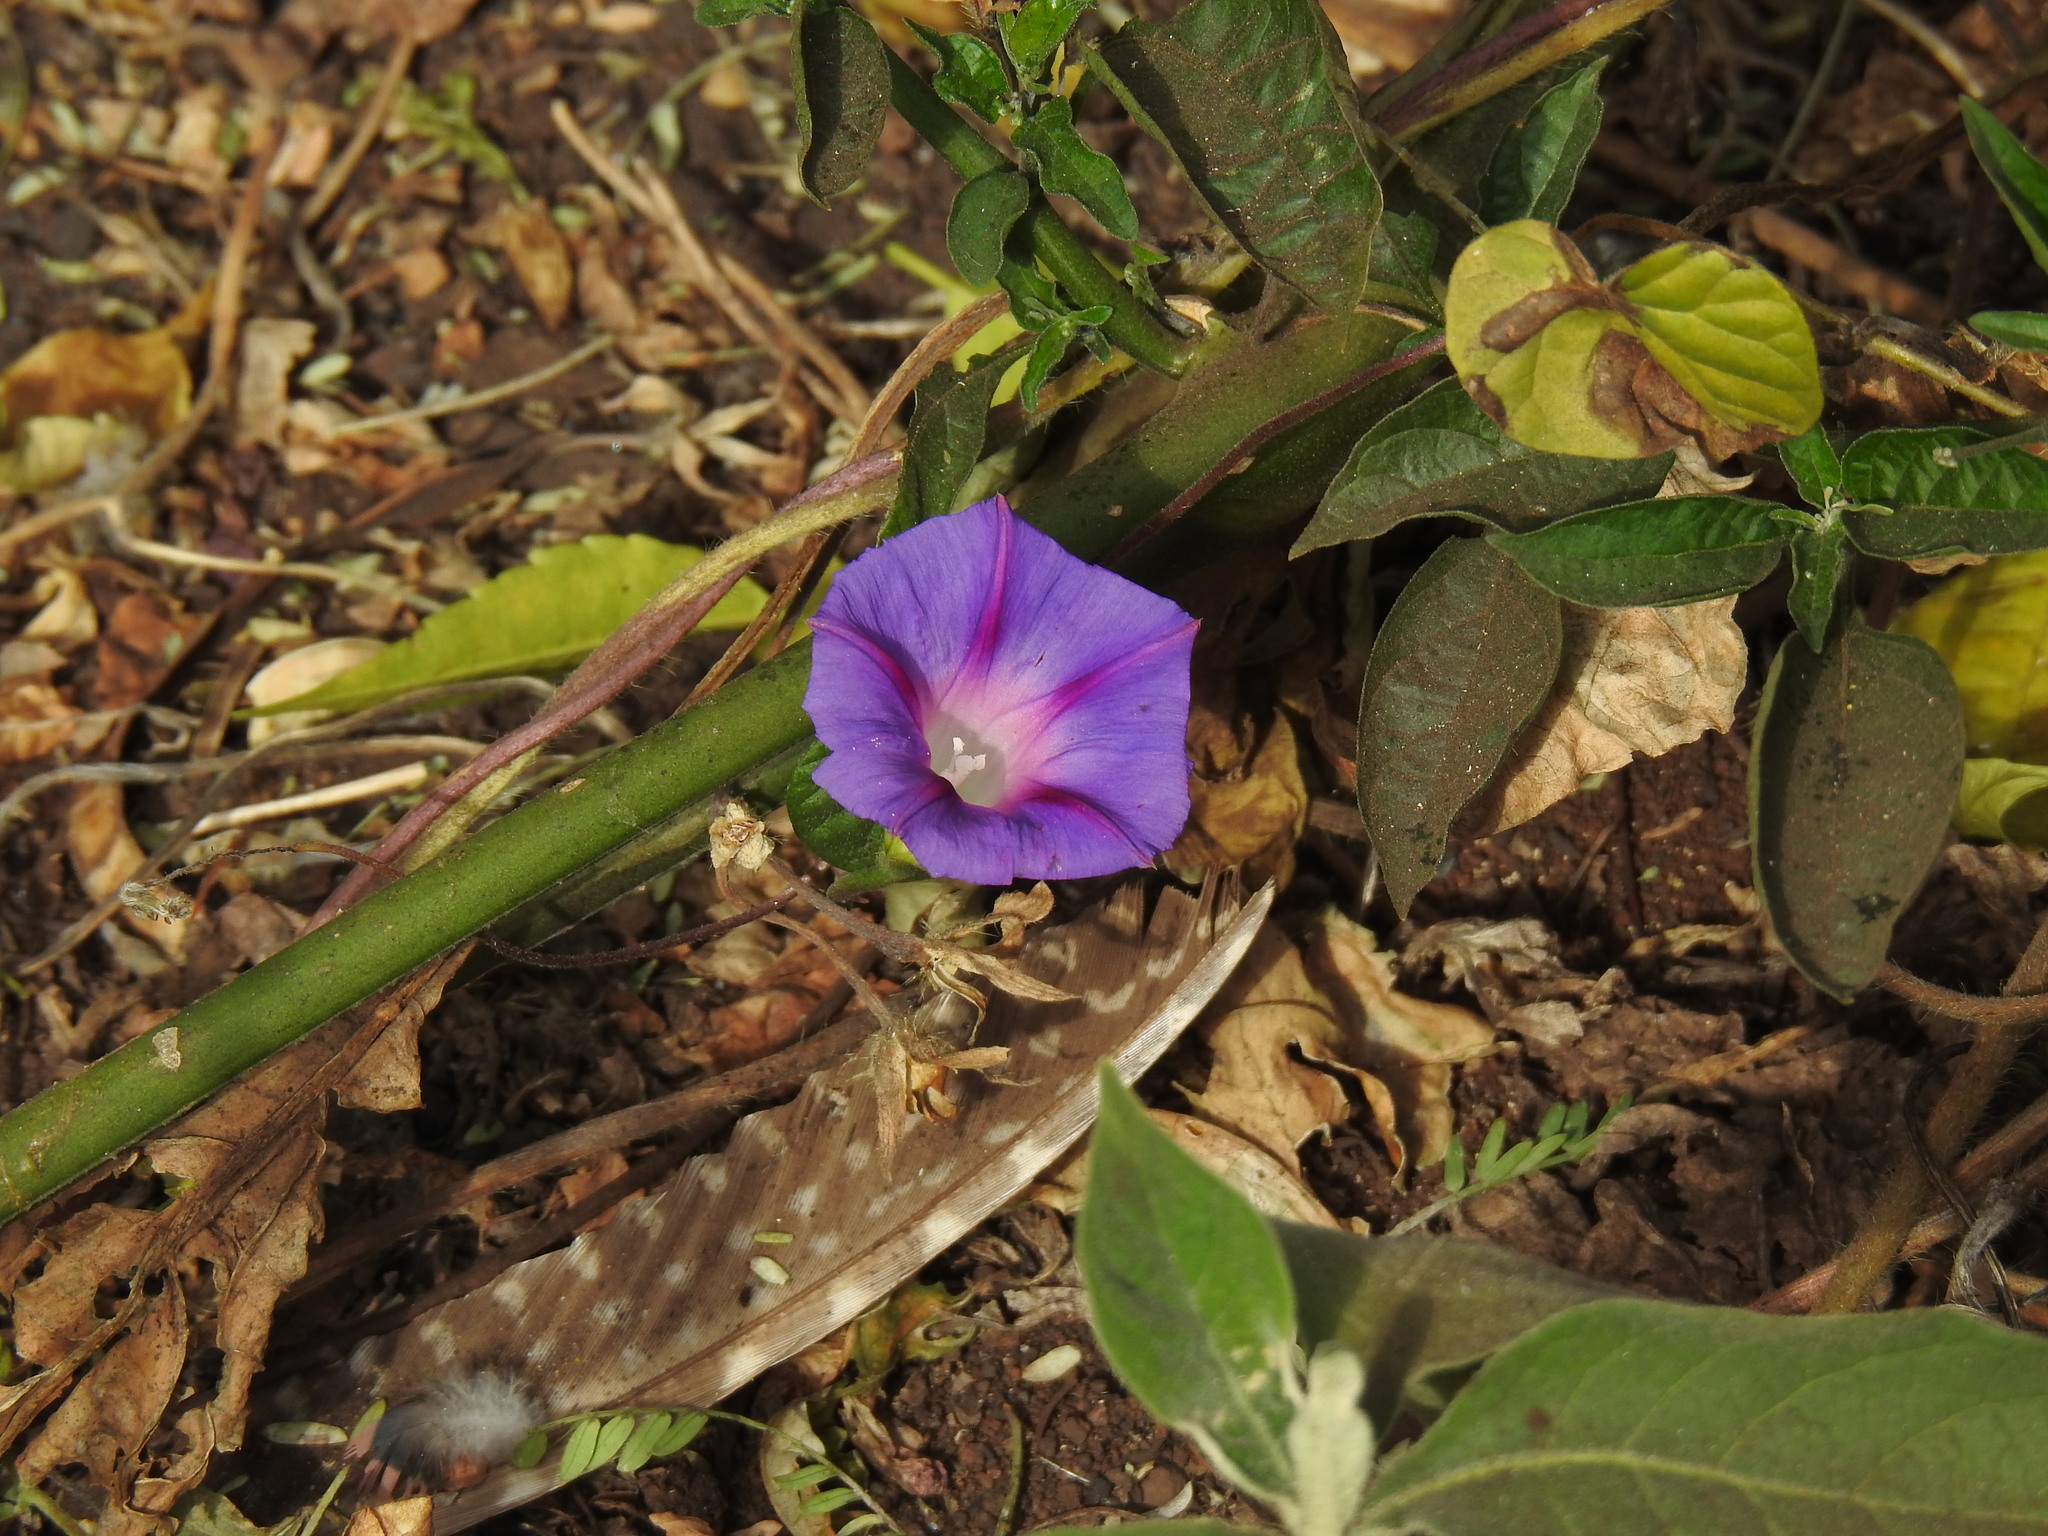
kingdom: Plantae
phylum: Tracheophyta
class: Magnoliopsida
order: Solanales
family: Convolvulaceae
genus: Ipomoea
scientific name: Ipomoea purpurea
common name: Common morning-glory
